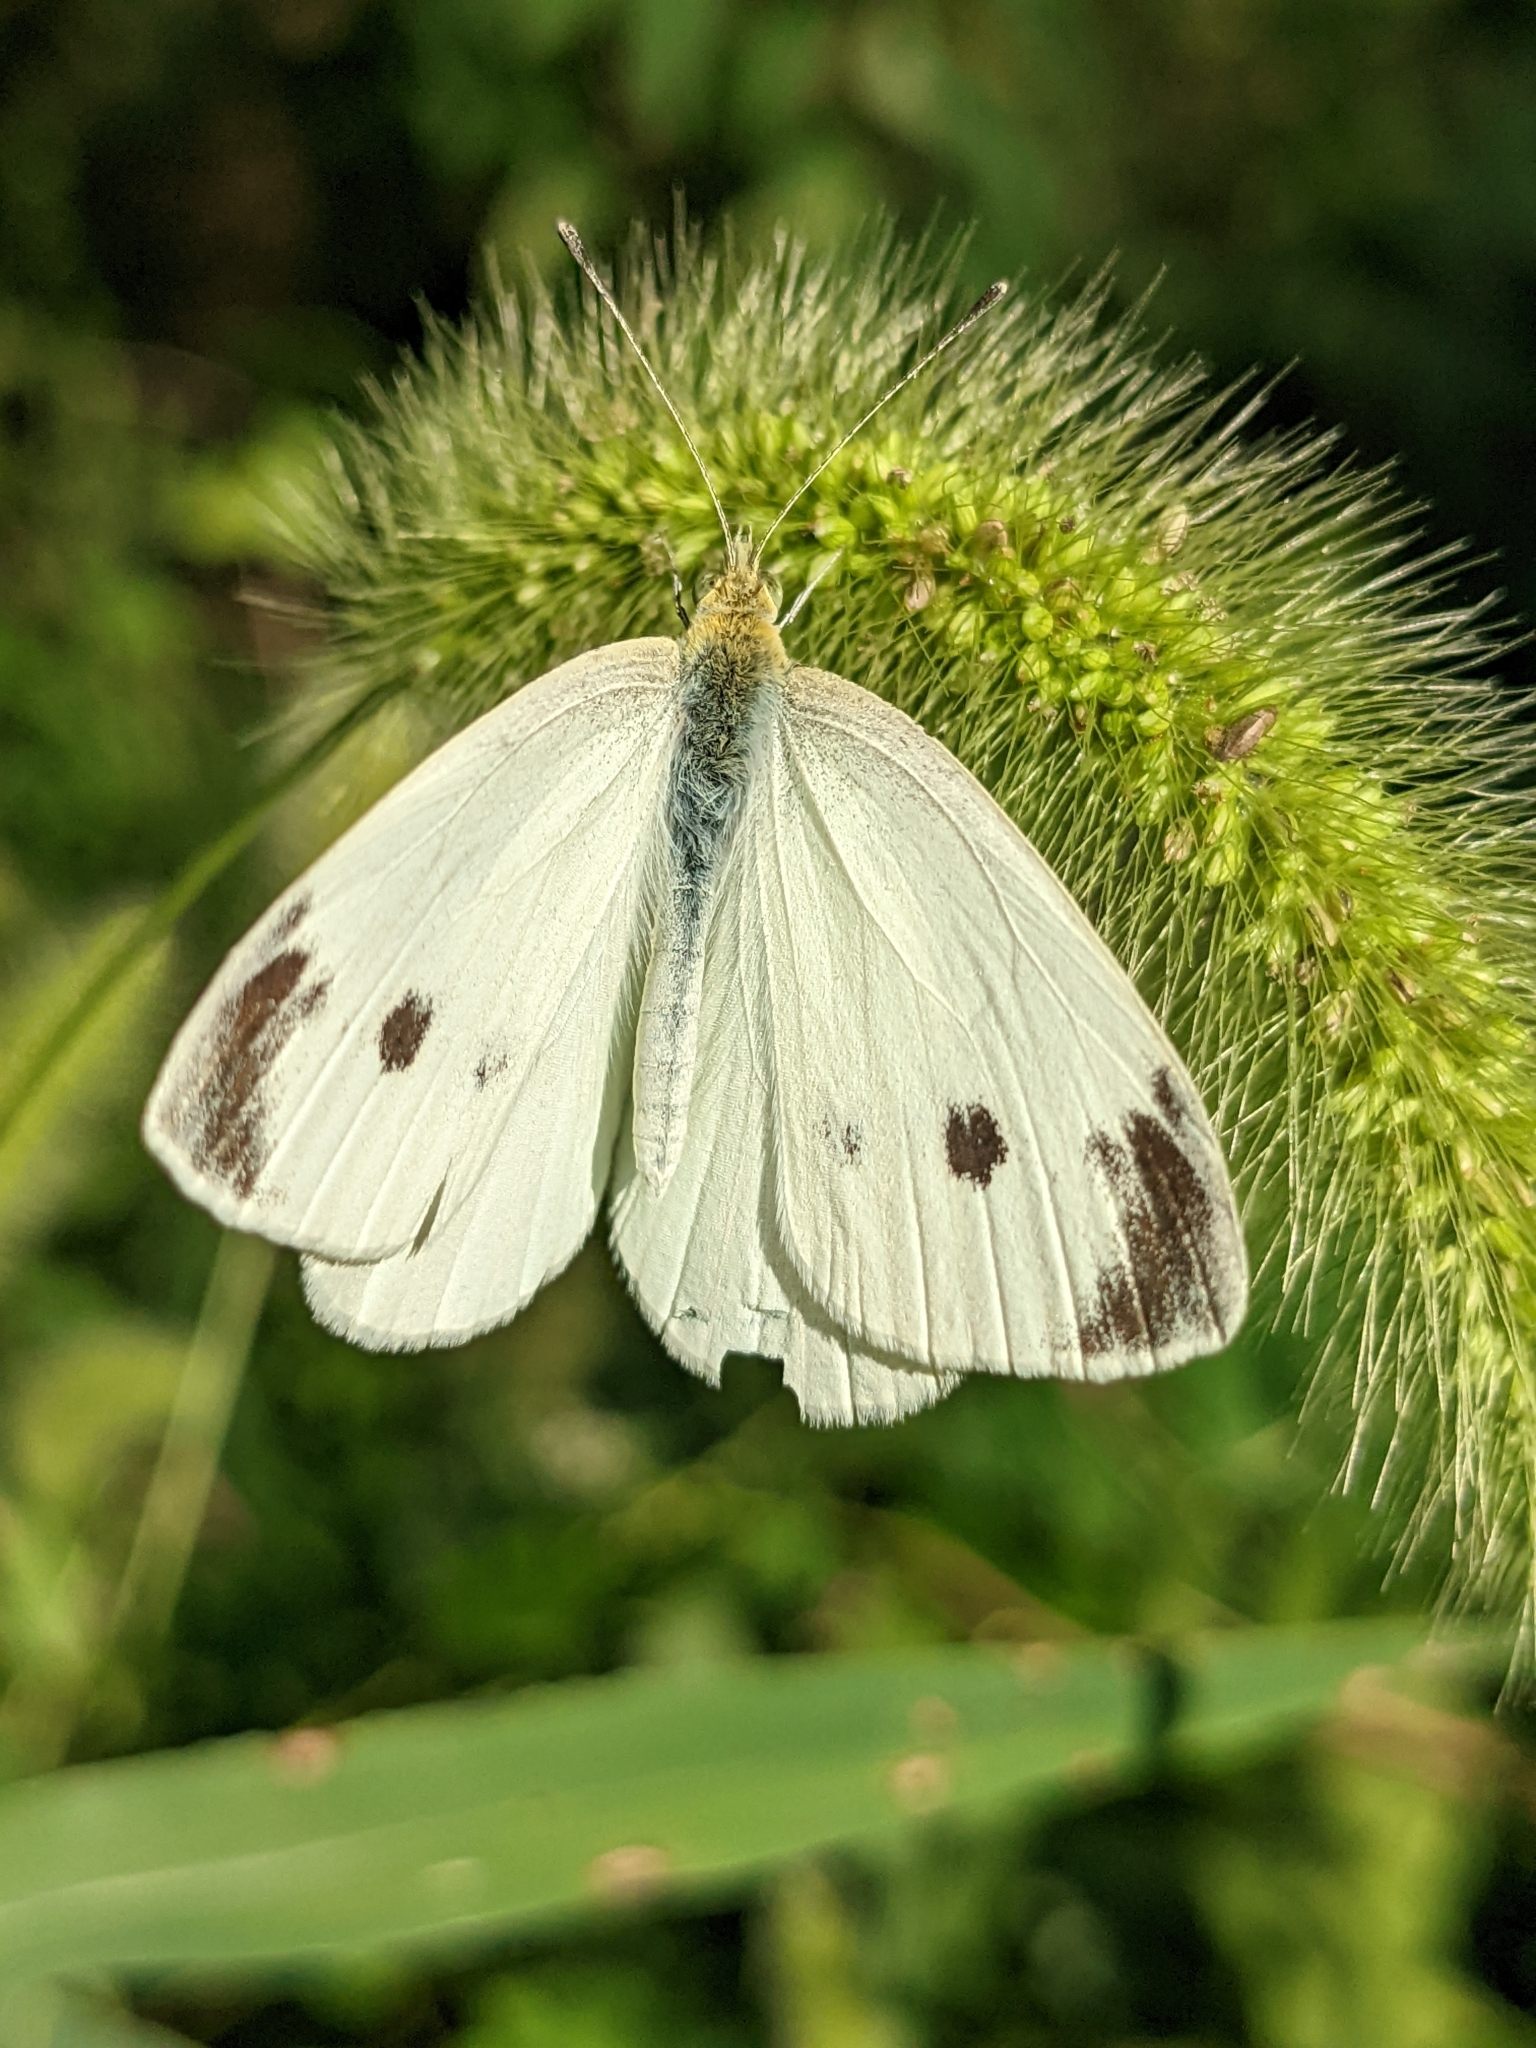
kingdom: Animalia
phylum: Arthropoda
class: Insecta
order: Lepidoptera
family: Pieridae
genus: Pieris
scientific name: Pieris rapae
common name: Small white
